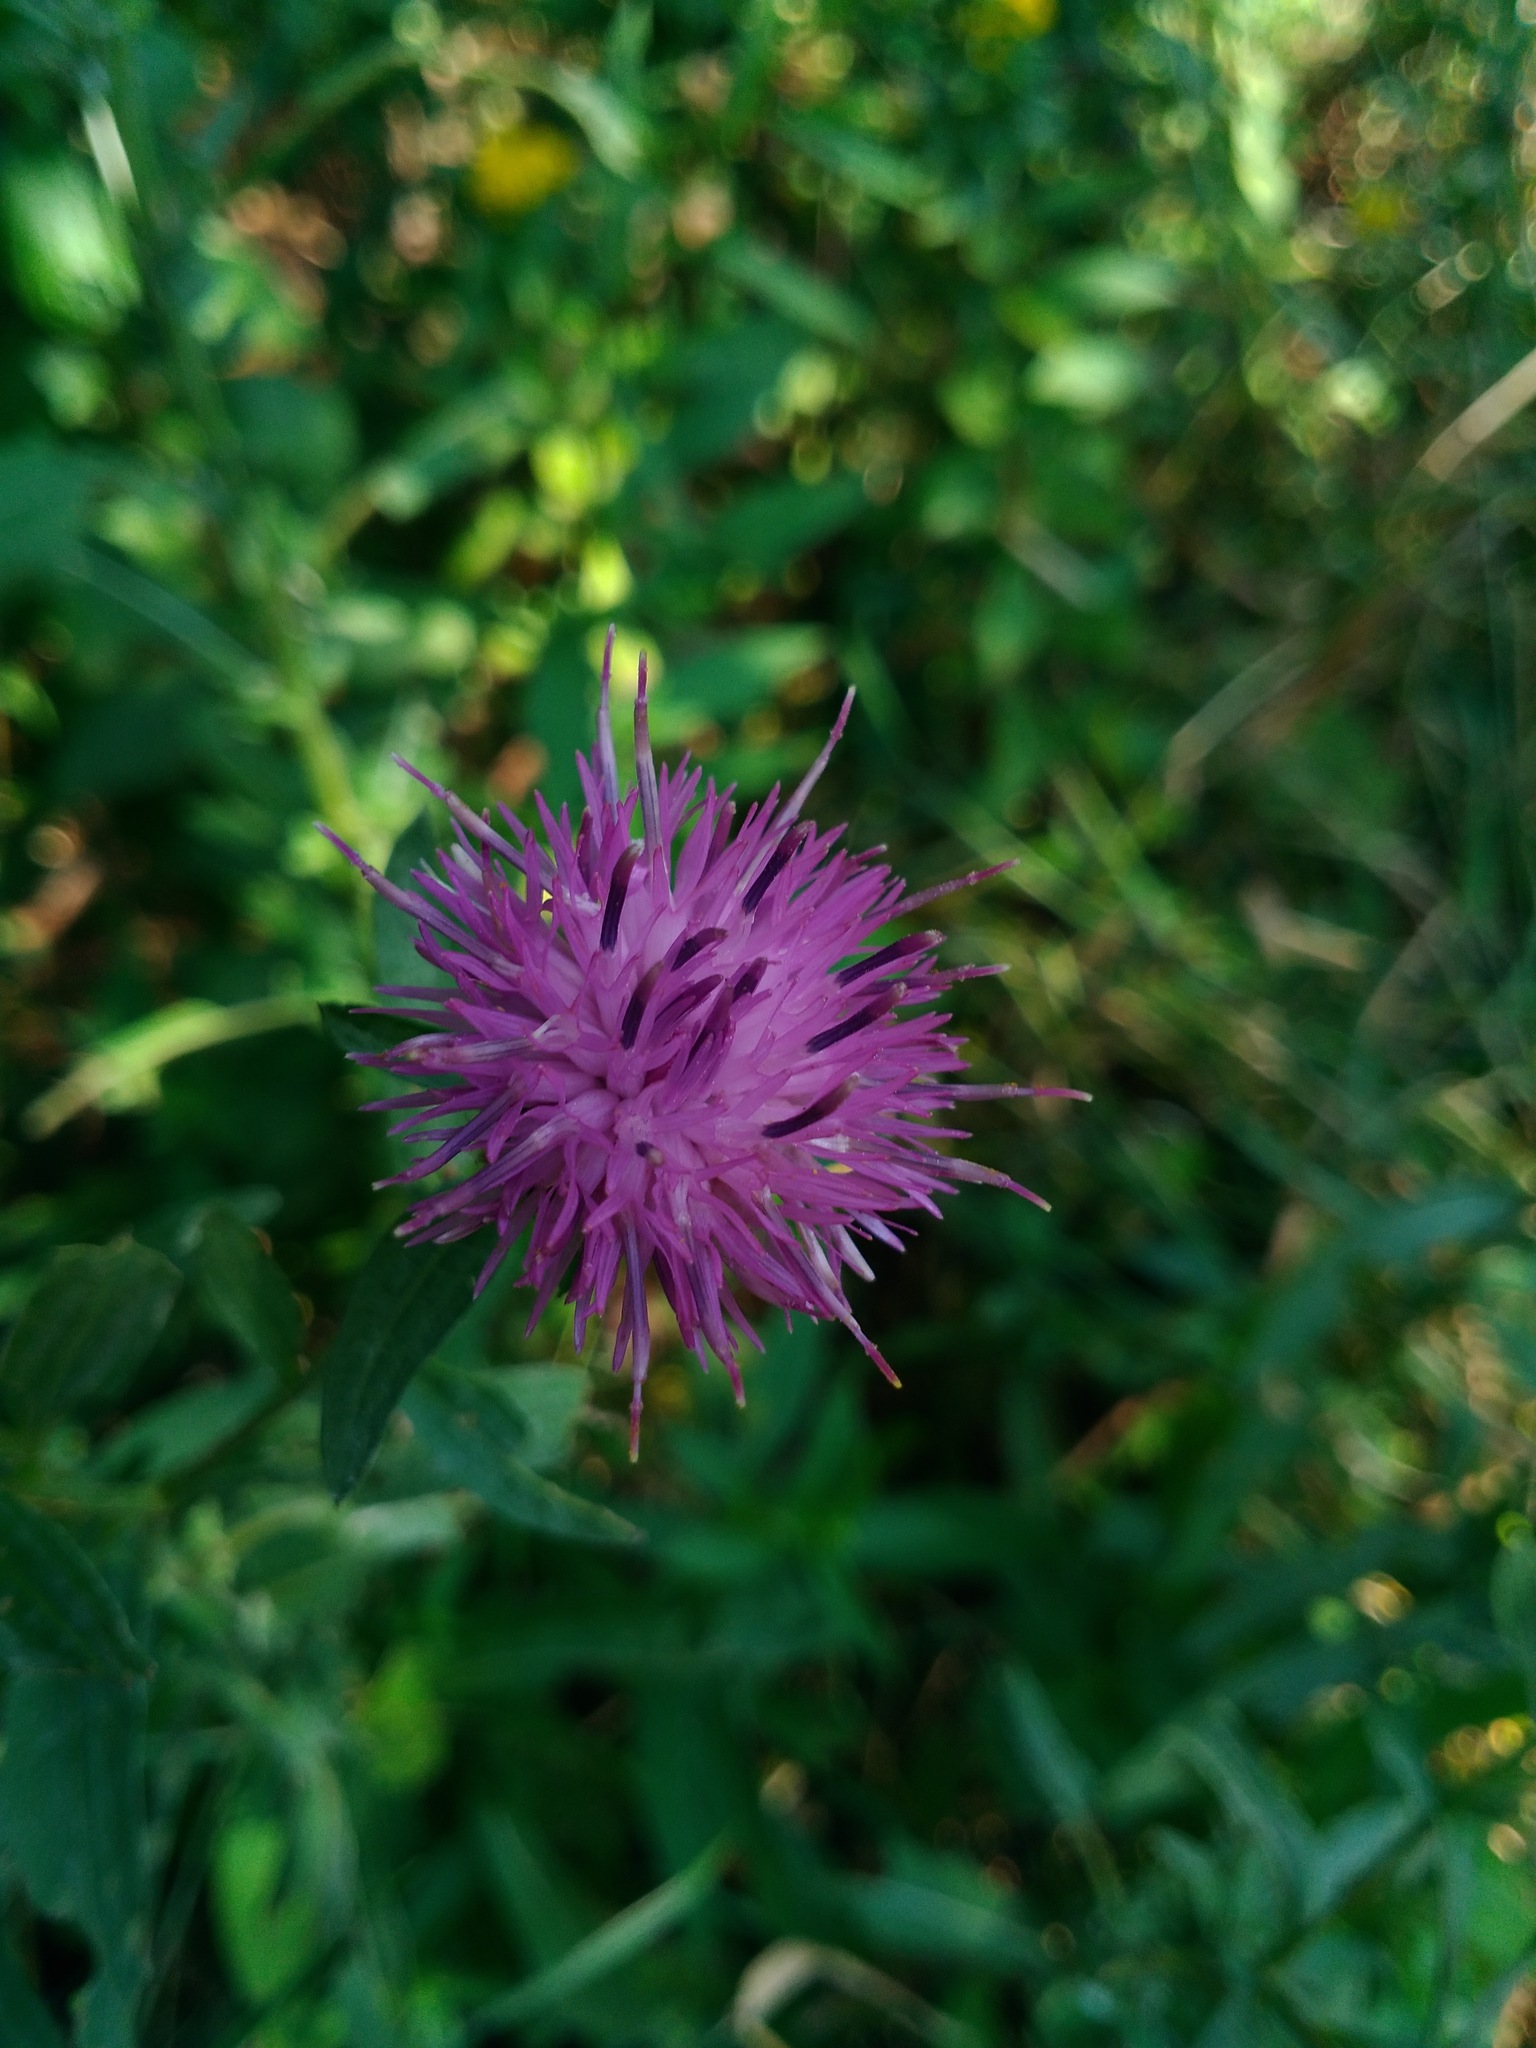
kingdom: Plantae
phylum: Tracheophyta
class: Magnoliopsida
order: Asterales
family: Asteraceae
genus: Centaurea
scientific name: Centaurea nigra
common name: Lesser knapweed
